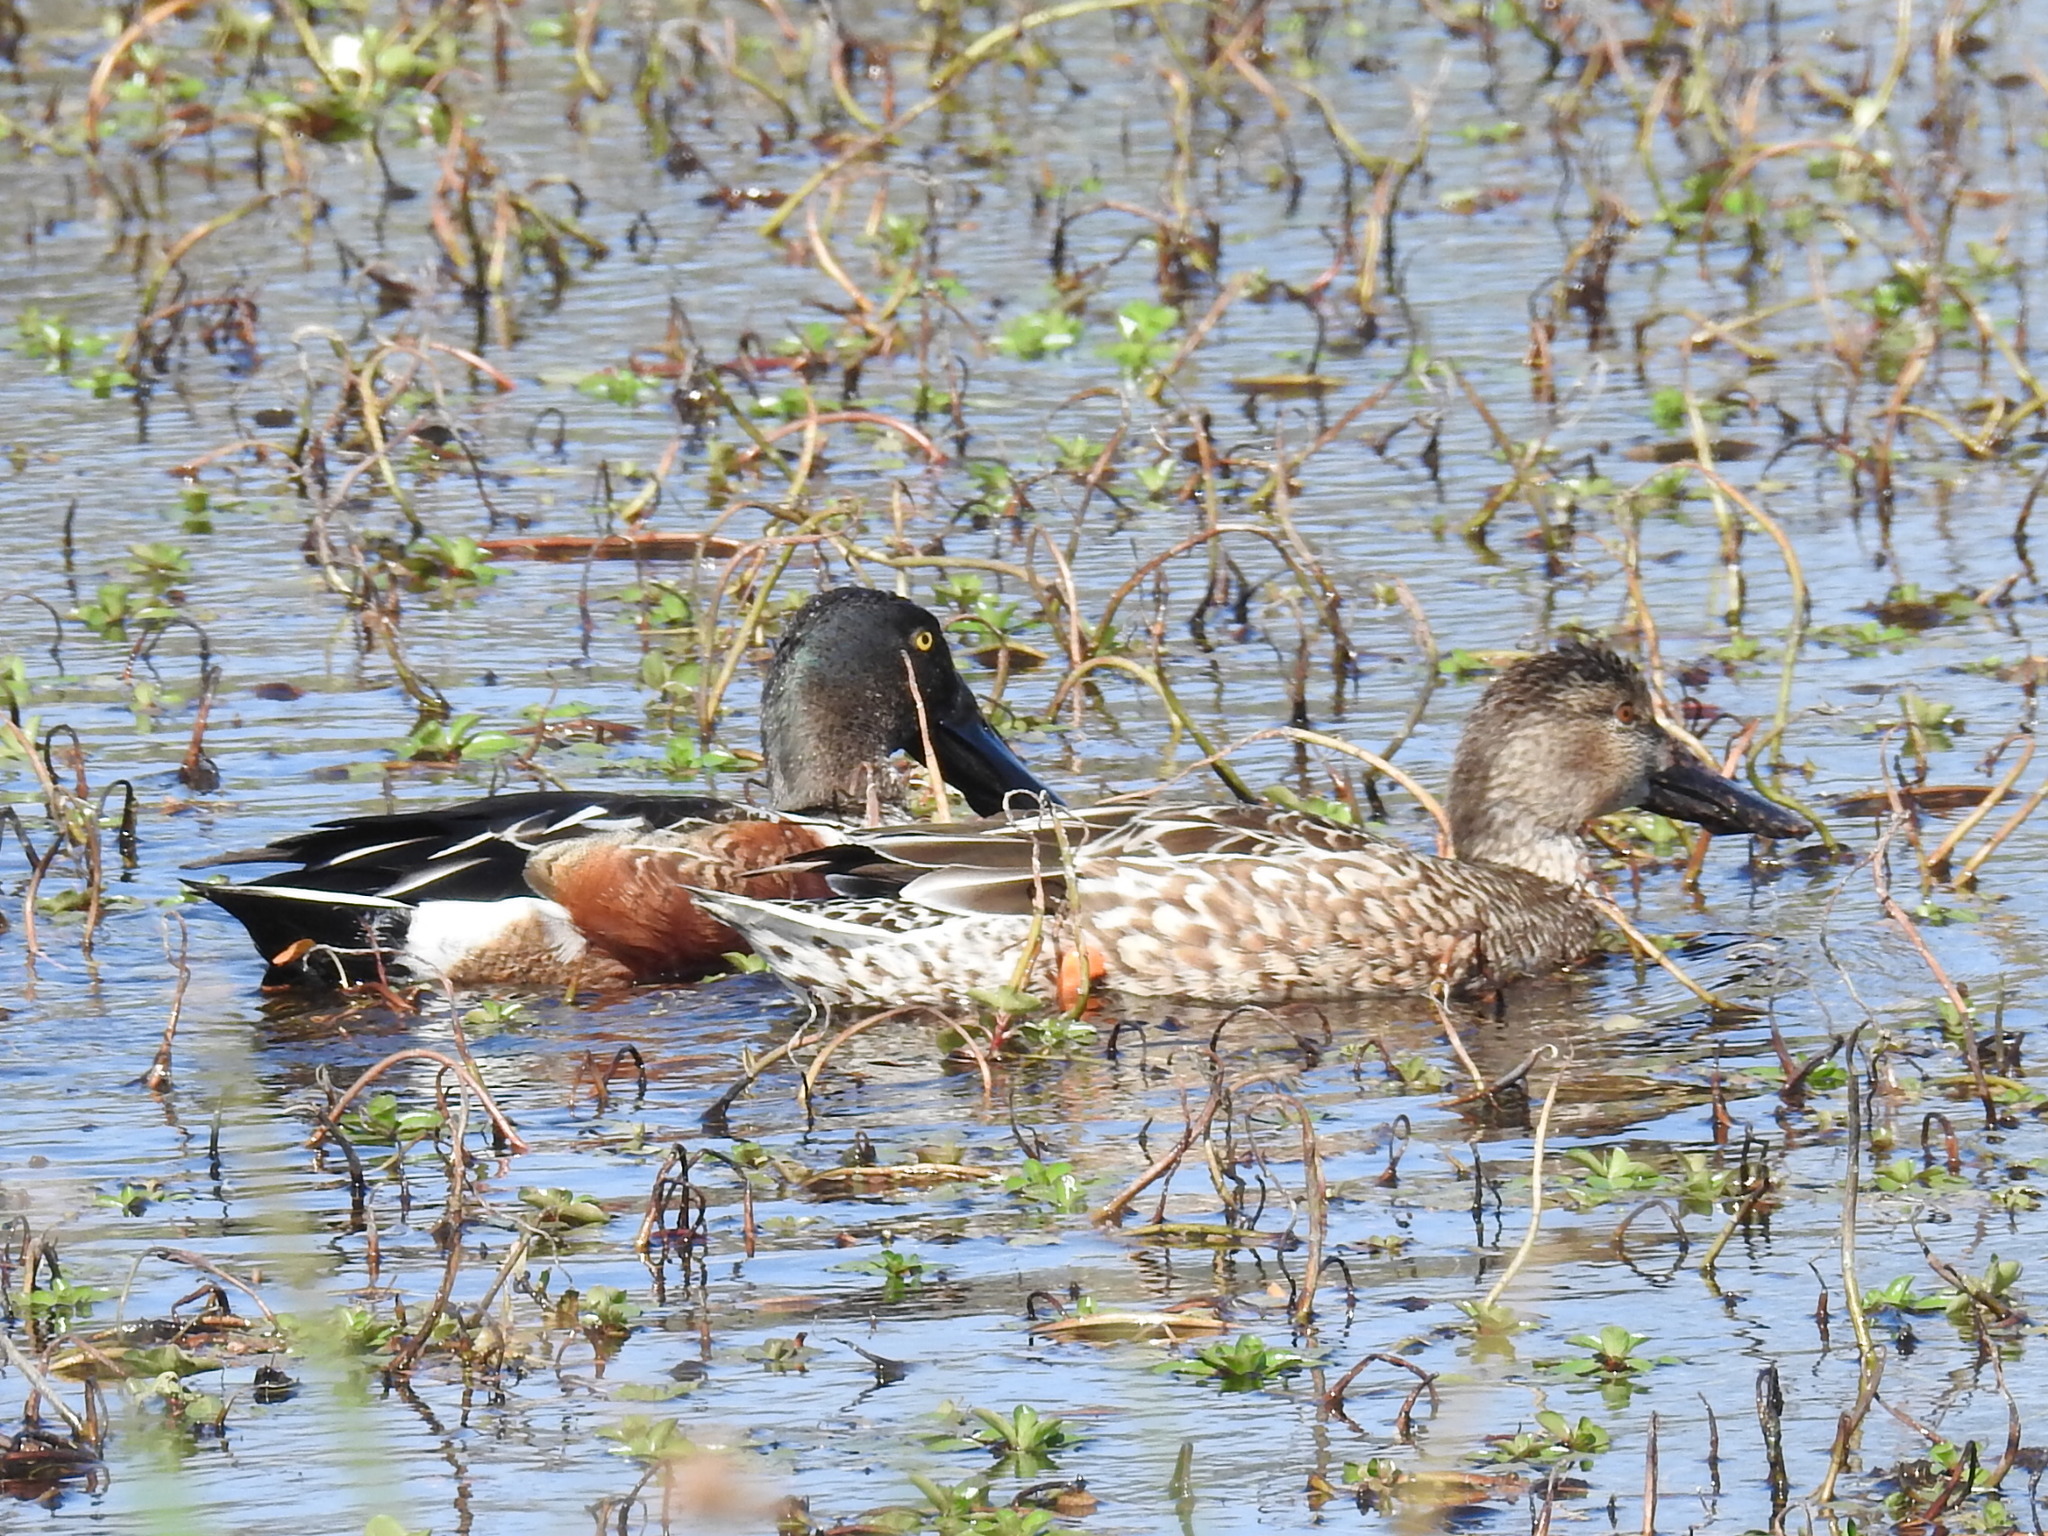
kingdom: Animalia
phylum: Chordata
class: Aves
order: Anseriformes
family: Anatidae
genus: Spatula
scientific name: Spatula clypeata
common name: Northern shoveler
